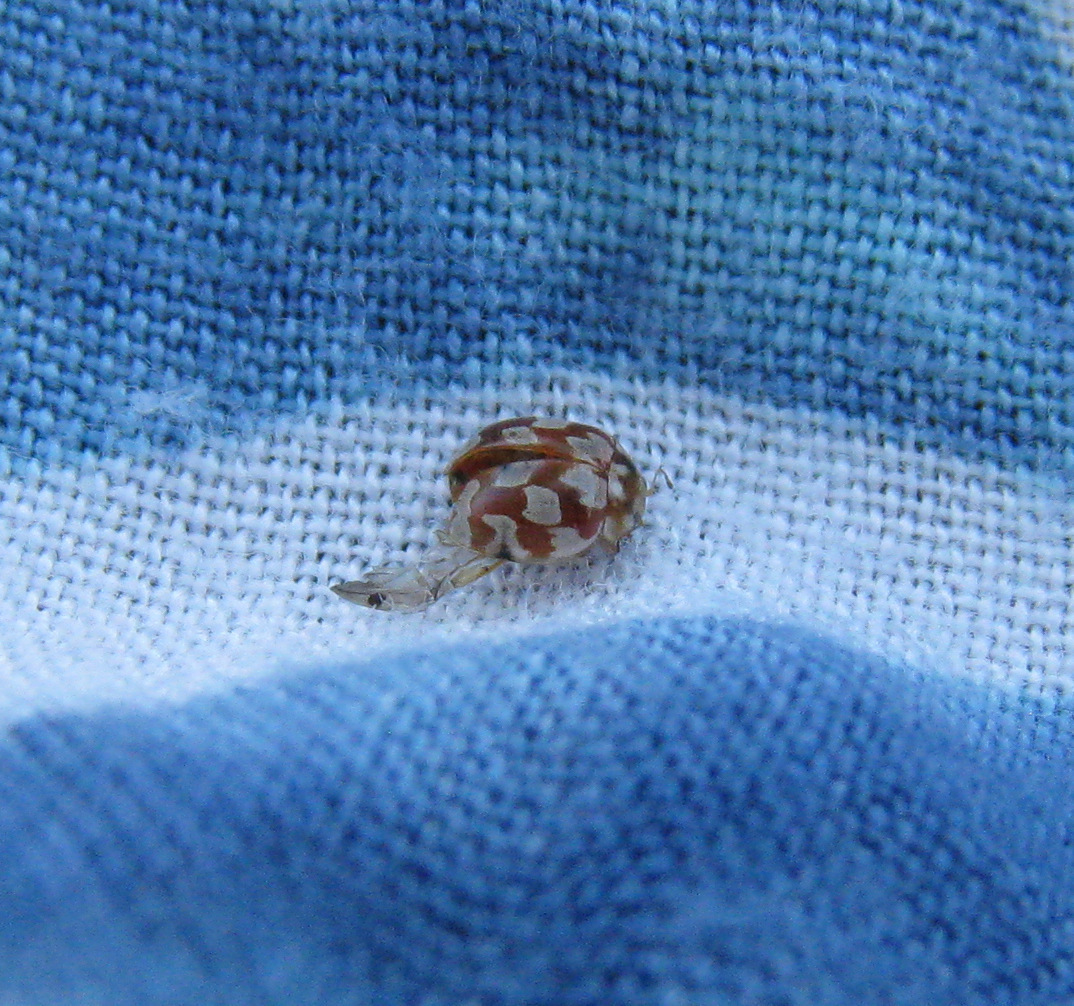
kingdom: Animalia
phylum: Arthropoda
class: Insecta
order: Coleoptera
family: Coccinellidae
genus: Myrrha
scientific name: Myrrha octodecimguttata
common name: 18-spot ladybird
